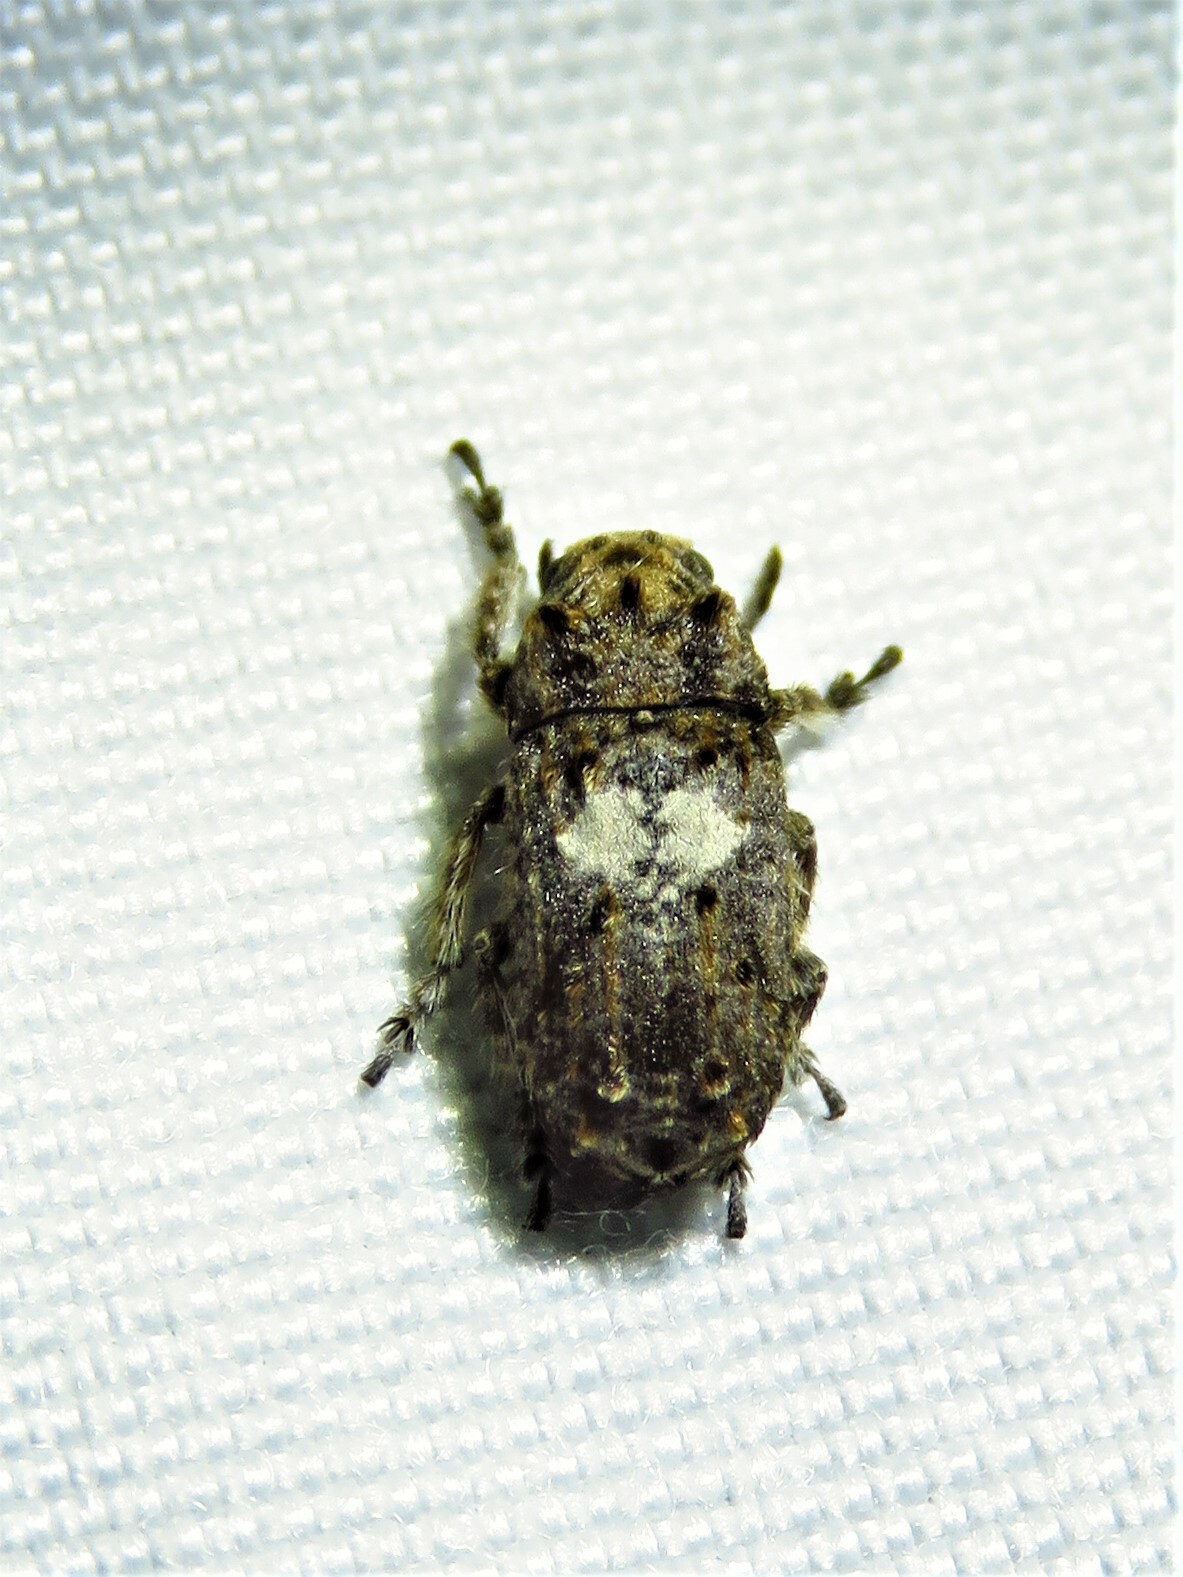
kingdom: Animalia
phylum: Arthropoda
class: Insecta
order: Coleoptera
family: Anthribidae
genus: Toxonotus
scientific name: Toxonotus cornutus
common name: Fungus weevil
